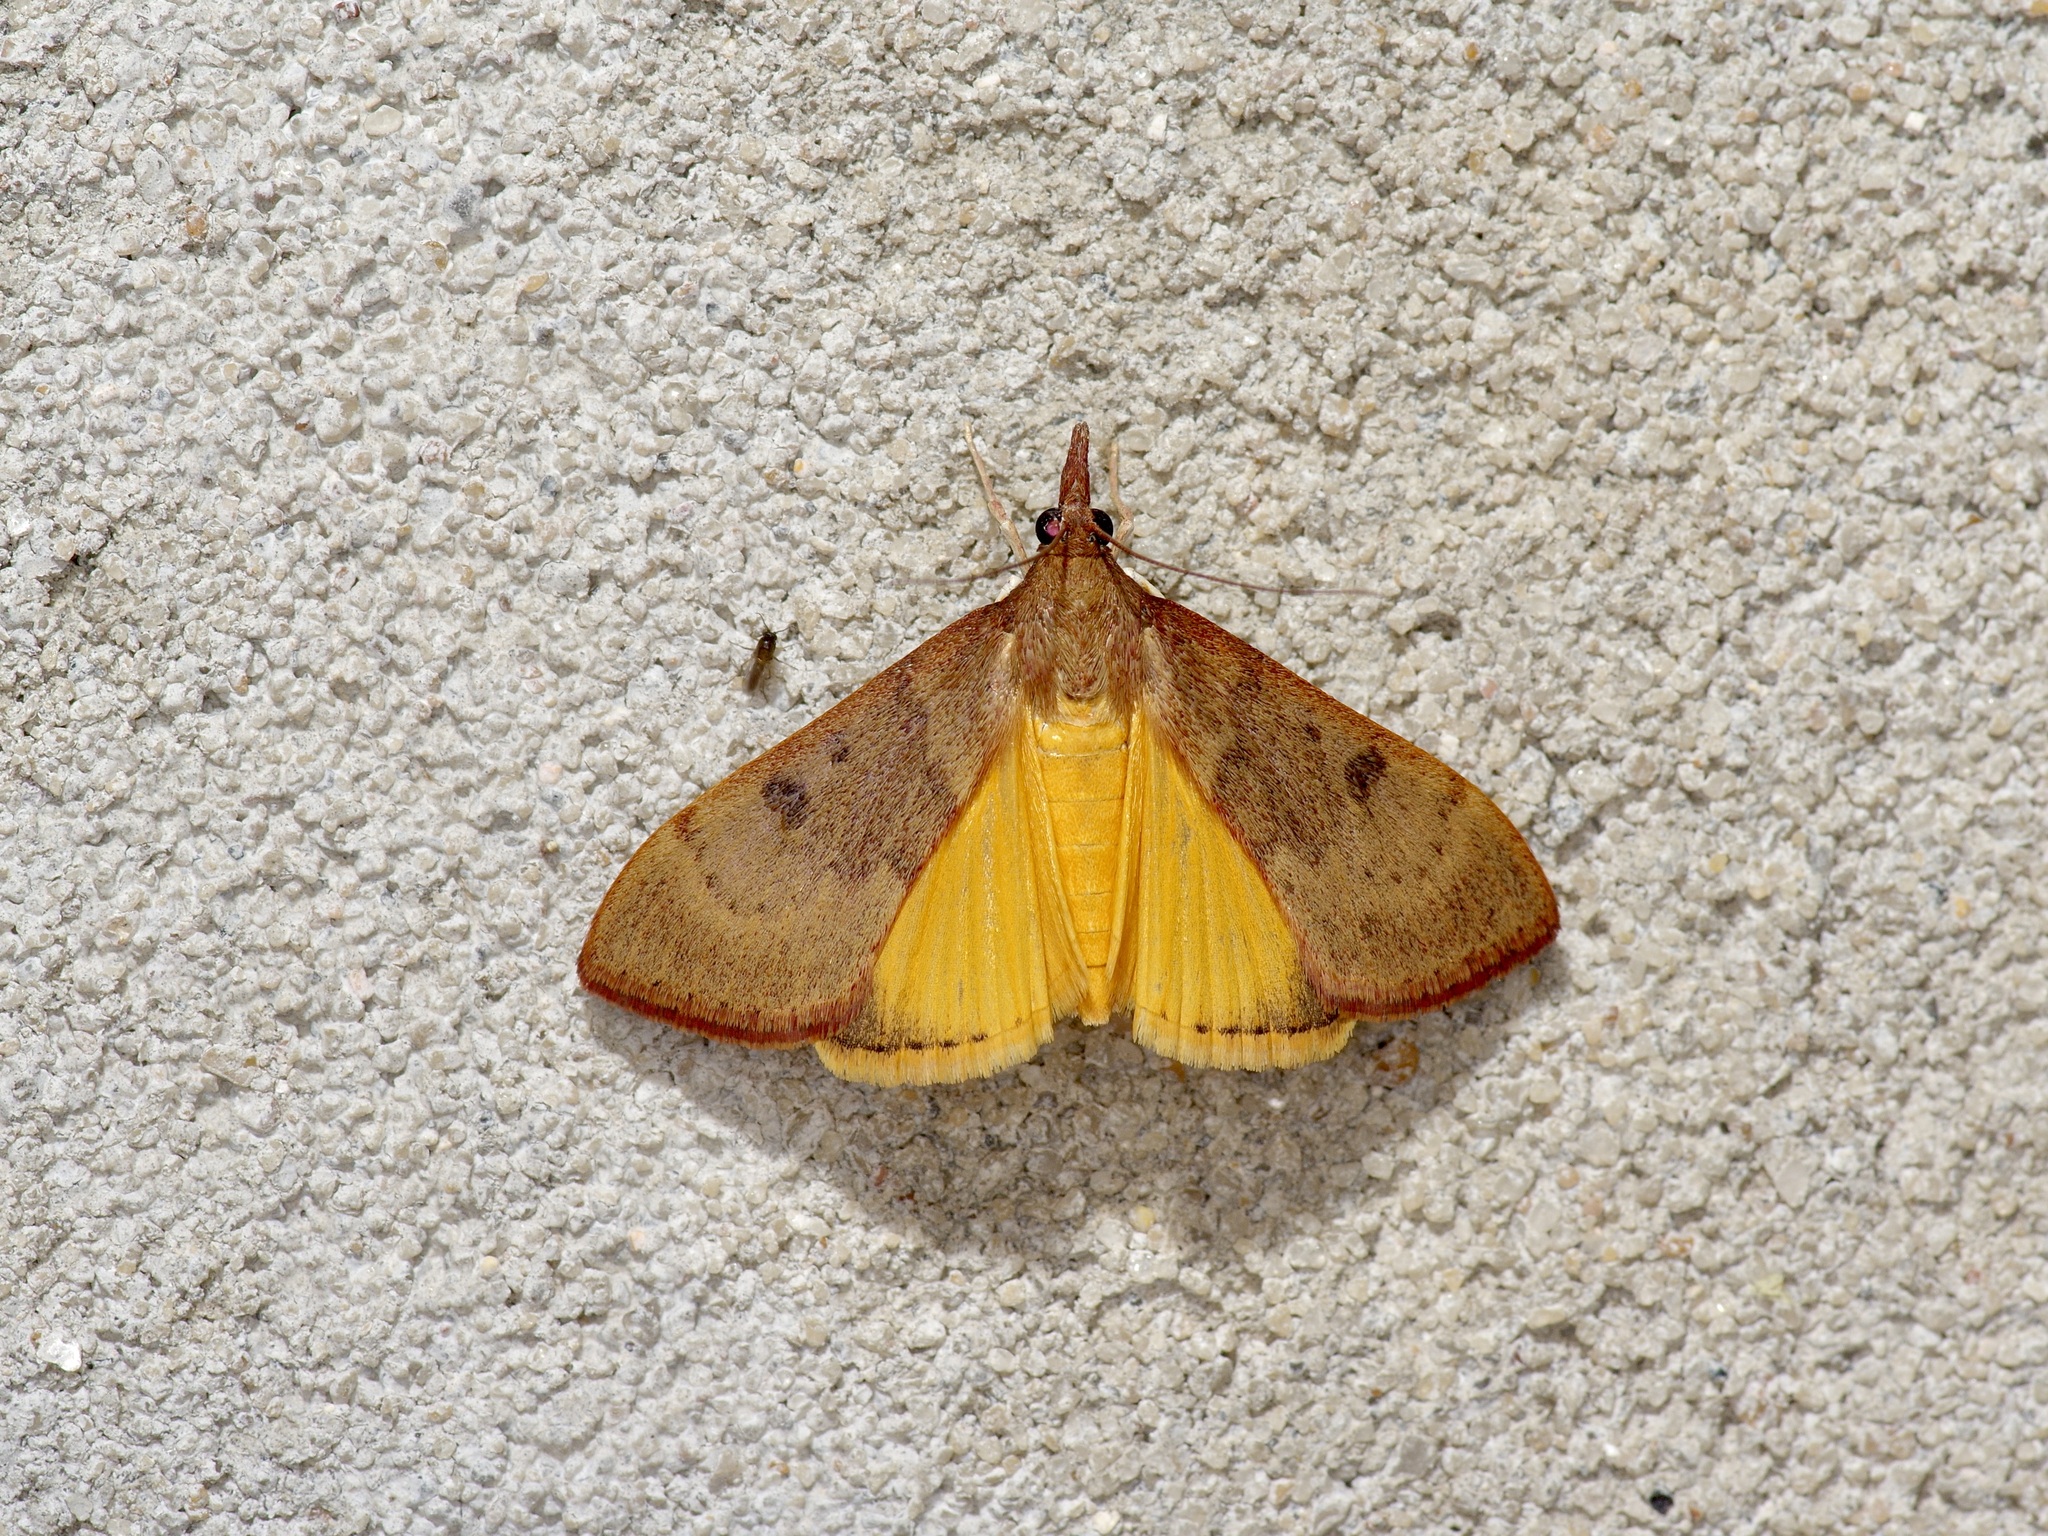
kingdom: Animalia
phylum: Arthropoda
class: Insecta
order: Lepidoptera
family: Crambidae
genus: Uresiphita
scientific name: Uresiphita reversalis
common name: Genista broom moth
